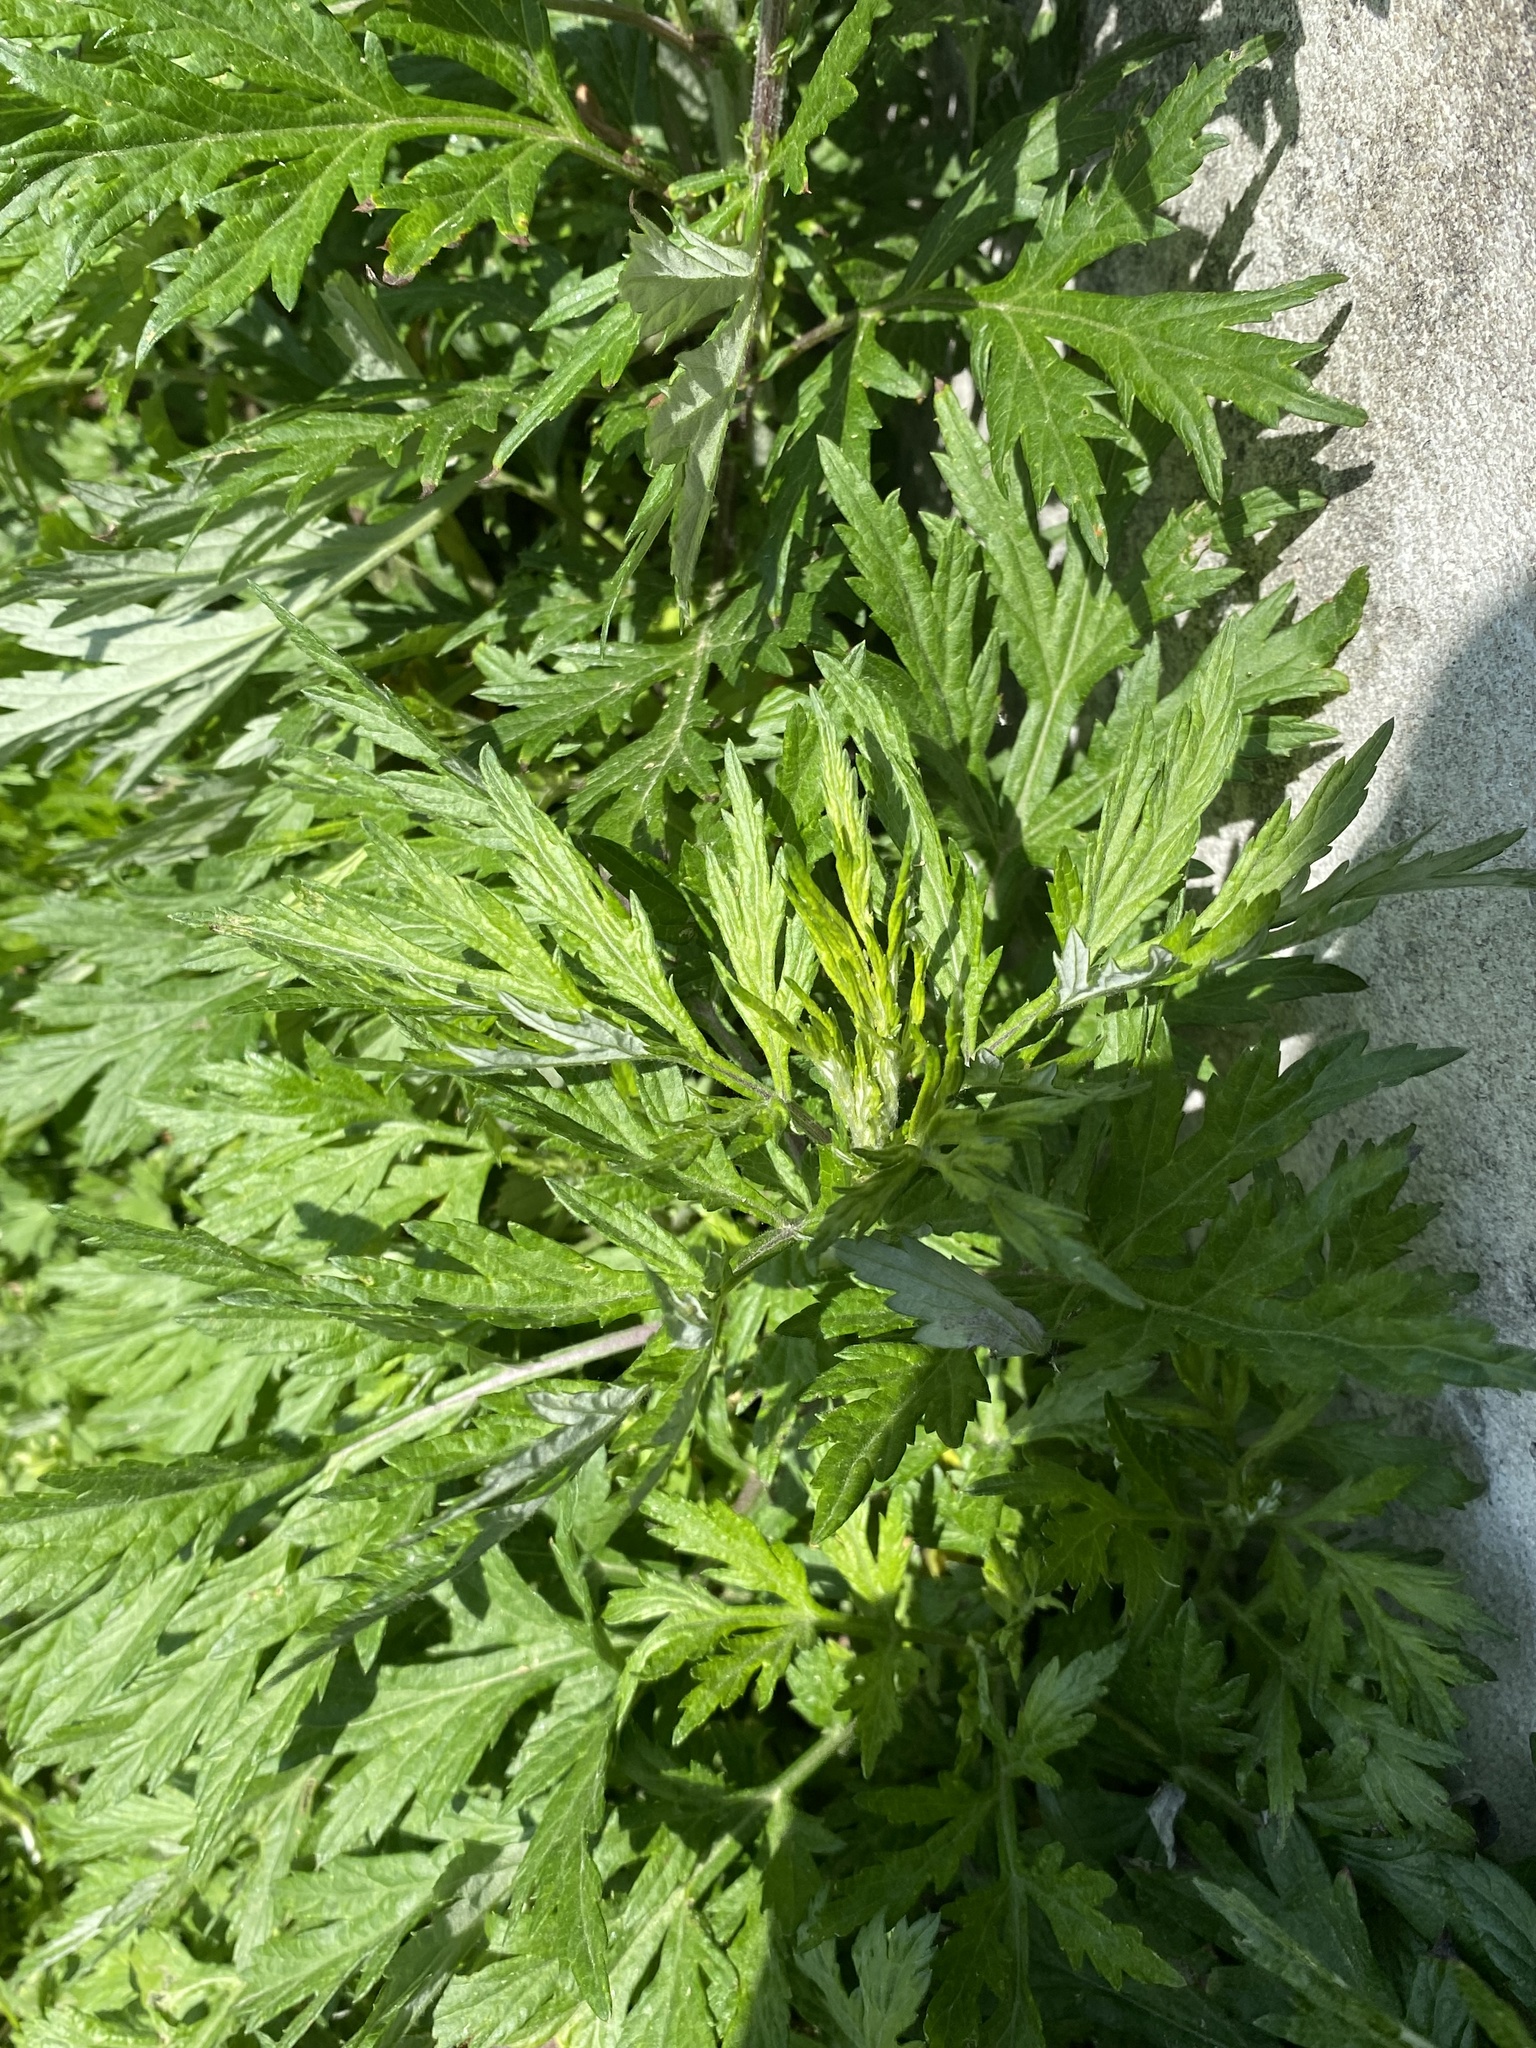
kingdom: Plantae
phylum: Tracheophyta
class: Magnoliopsida
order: Asterales
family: Asteraceae
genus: Artemisia
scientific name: Artemisia vulgaris
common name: Mugwort
